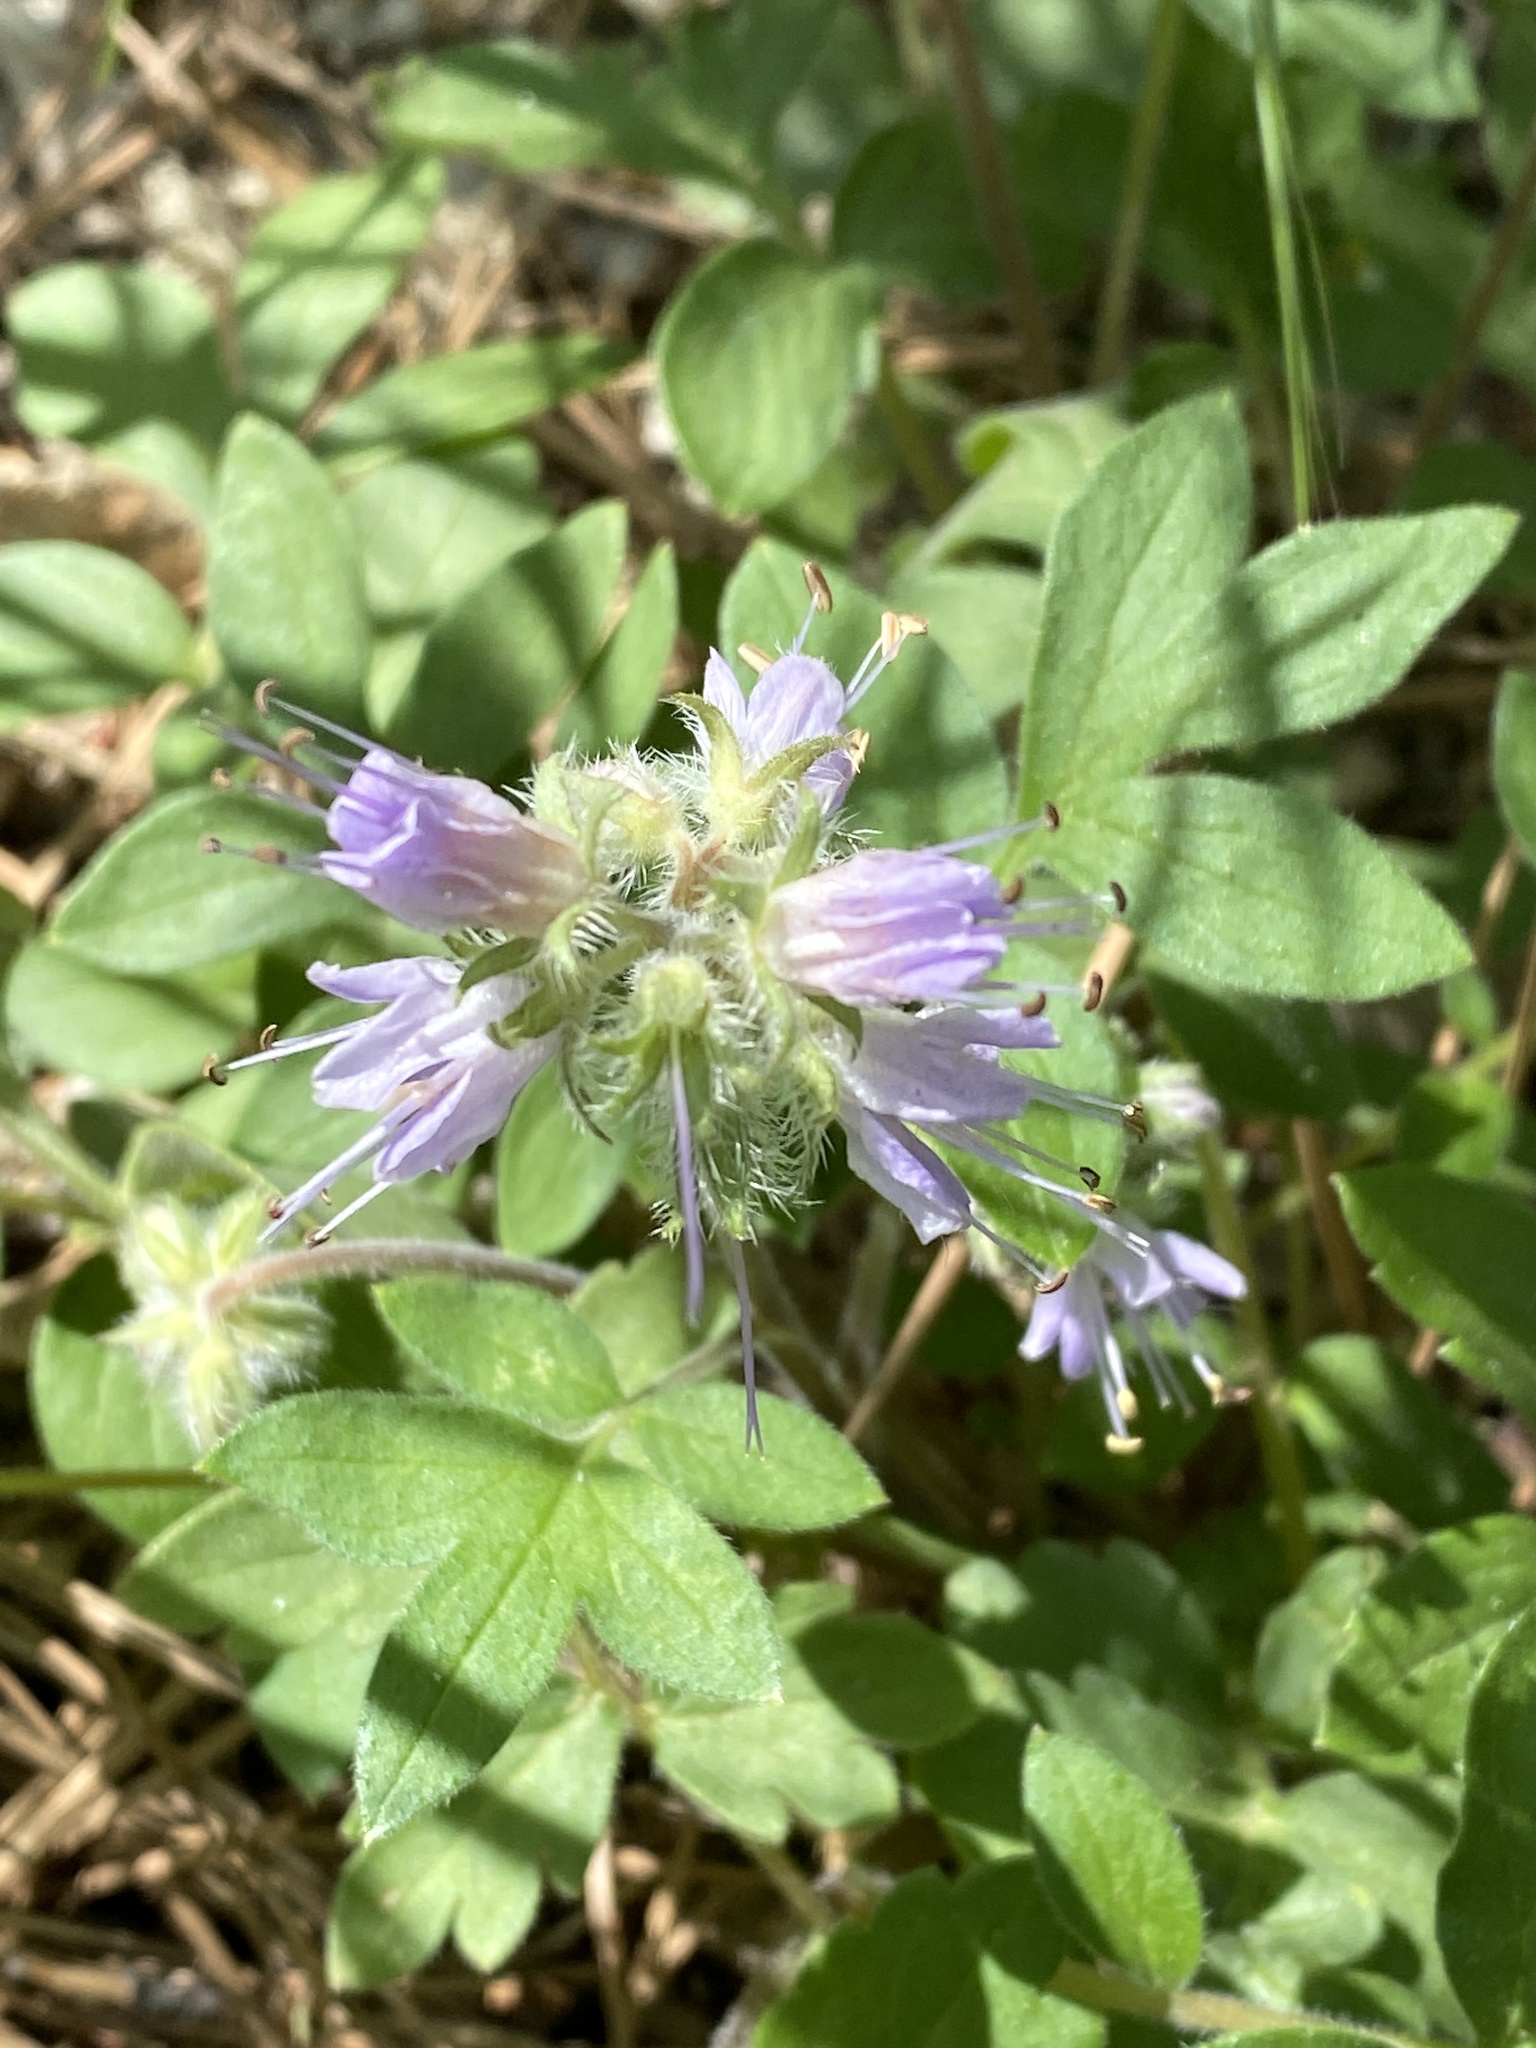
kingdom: Plantae
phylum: Tracheophyta
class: Magnoliopsida
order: Boraginales
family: Hydrophyllaceae
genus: Hydrophyllum
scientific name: Hydrophyllum occidentale
